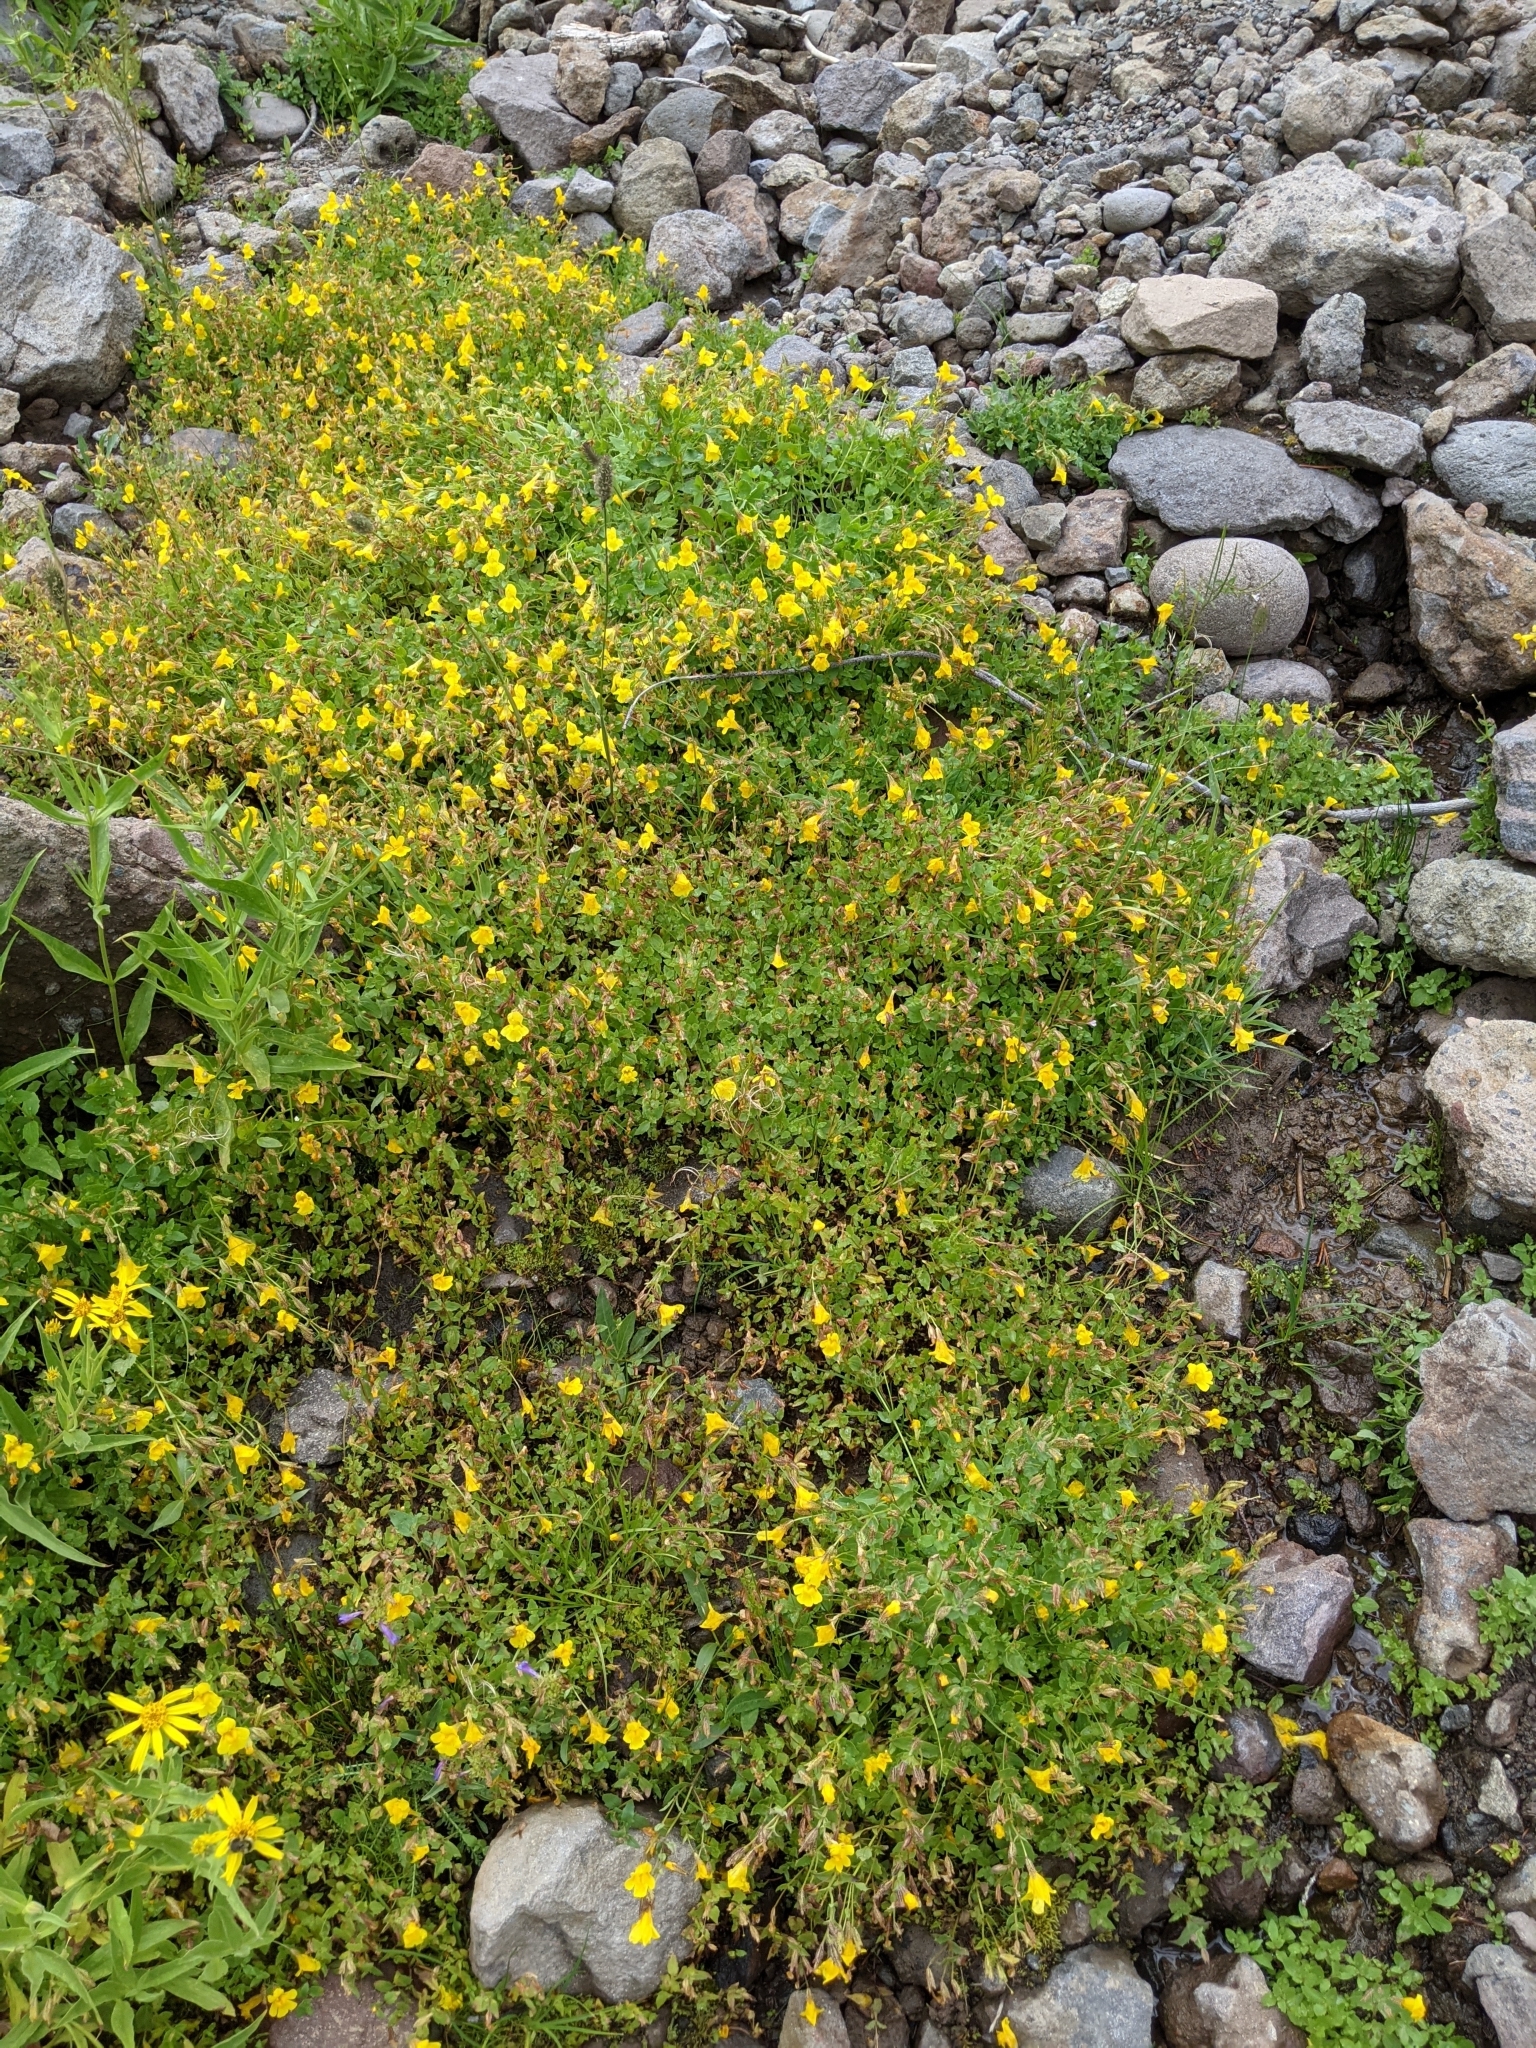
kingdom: Plantae
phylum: Tracheophyta
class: Magnoliopsida
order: Lamiales
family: Phrymaceae
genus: Erythranthe
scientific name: Erythranthe tilingii
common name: Subalpine monkey-flower
